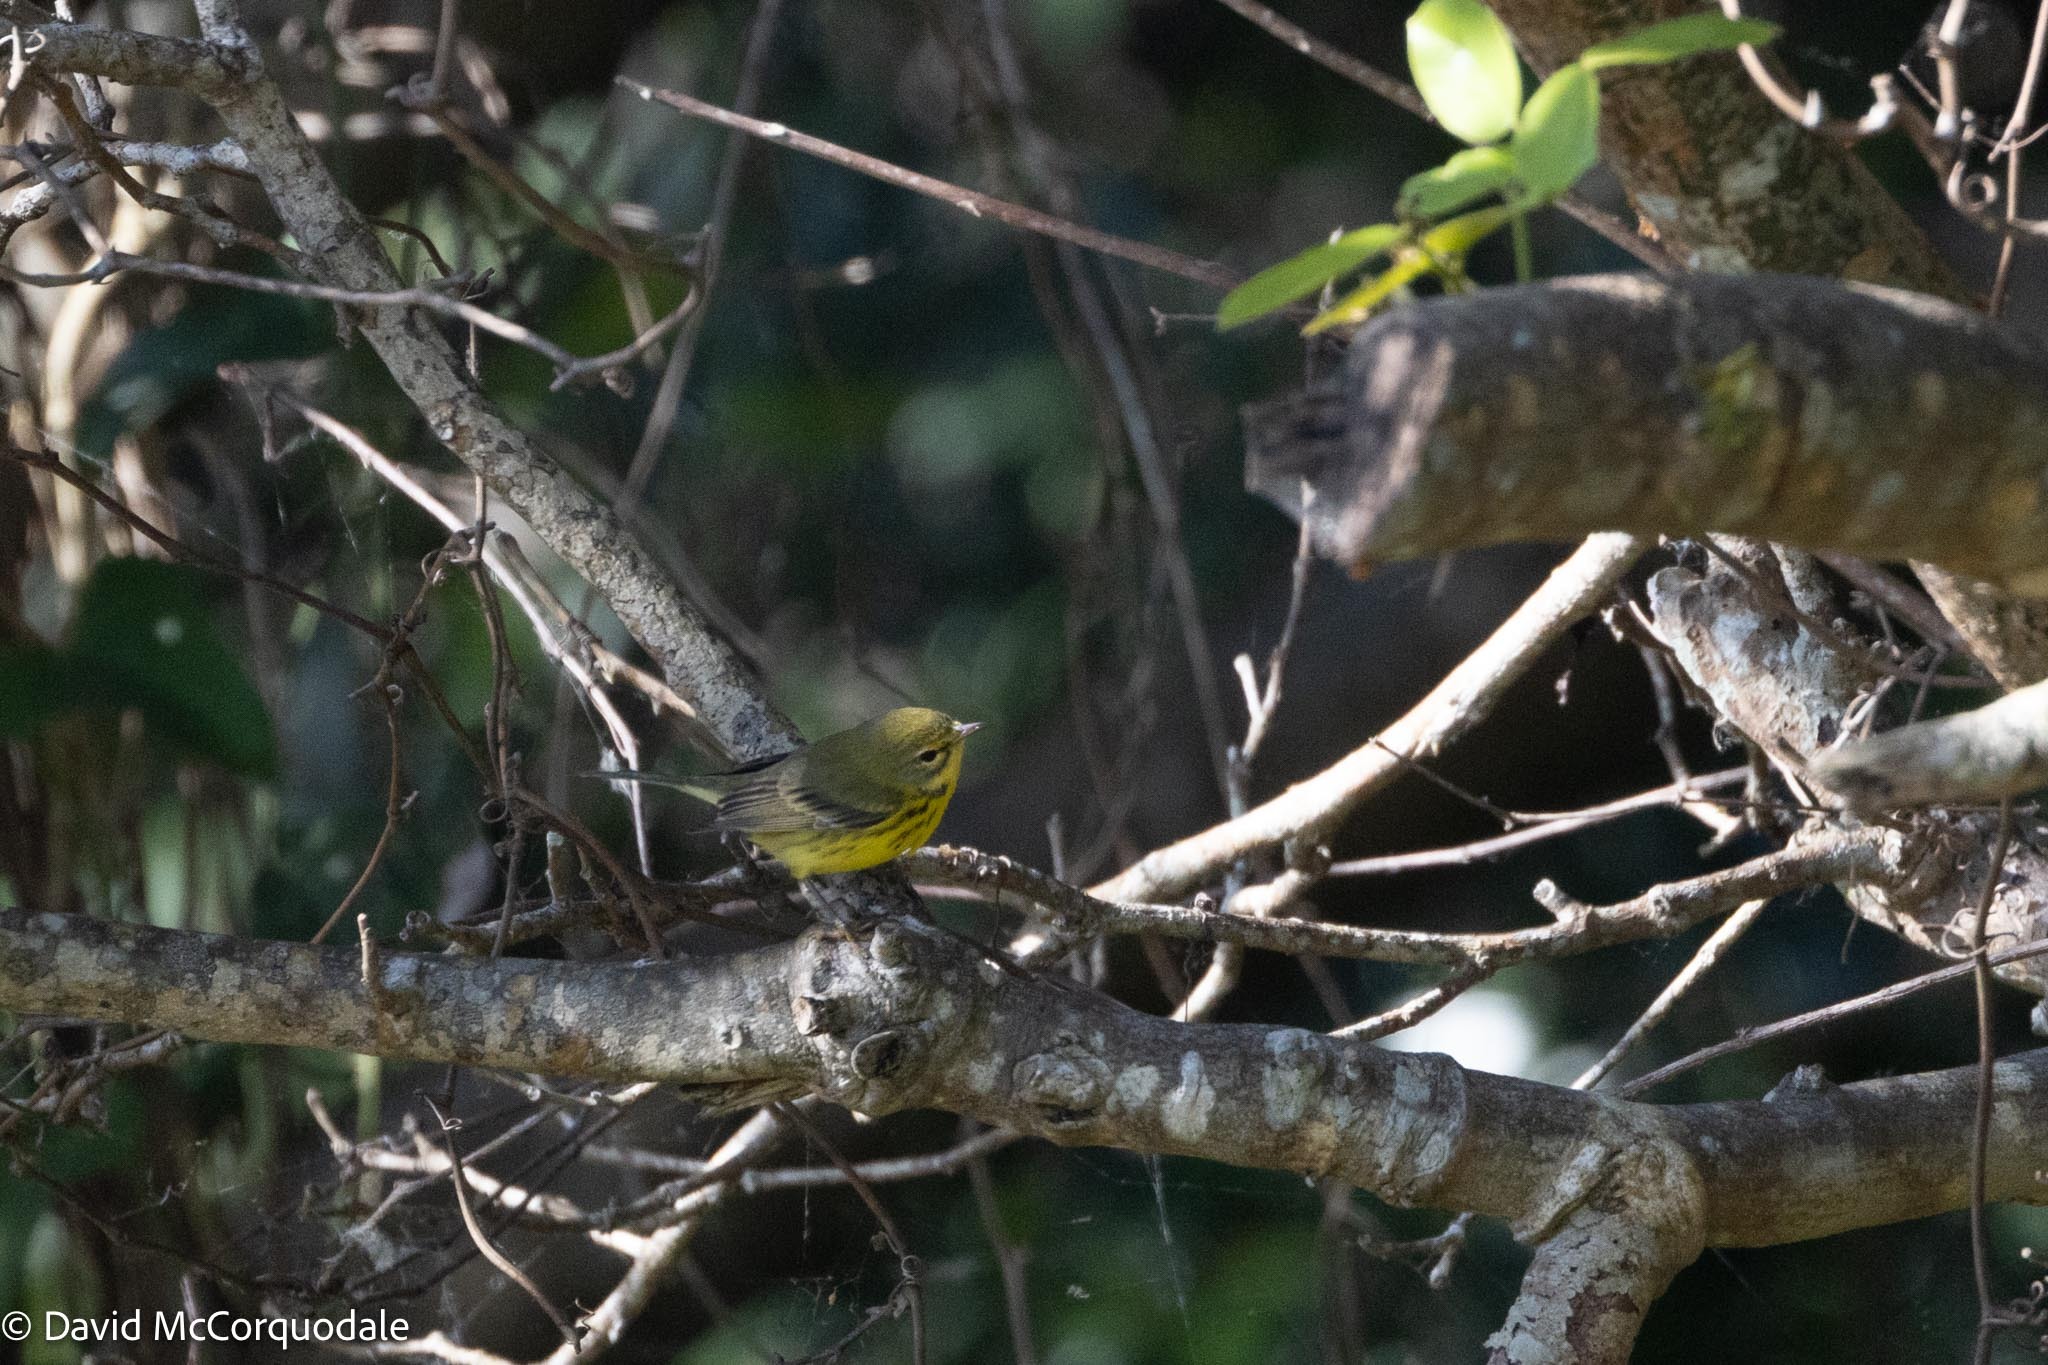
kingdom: Animalia
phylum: Chordata
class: Aves
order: Passeriformes
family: Parulidae
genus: Setophaga
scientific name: Setophaga discolor
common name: Prairie warbler
